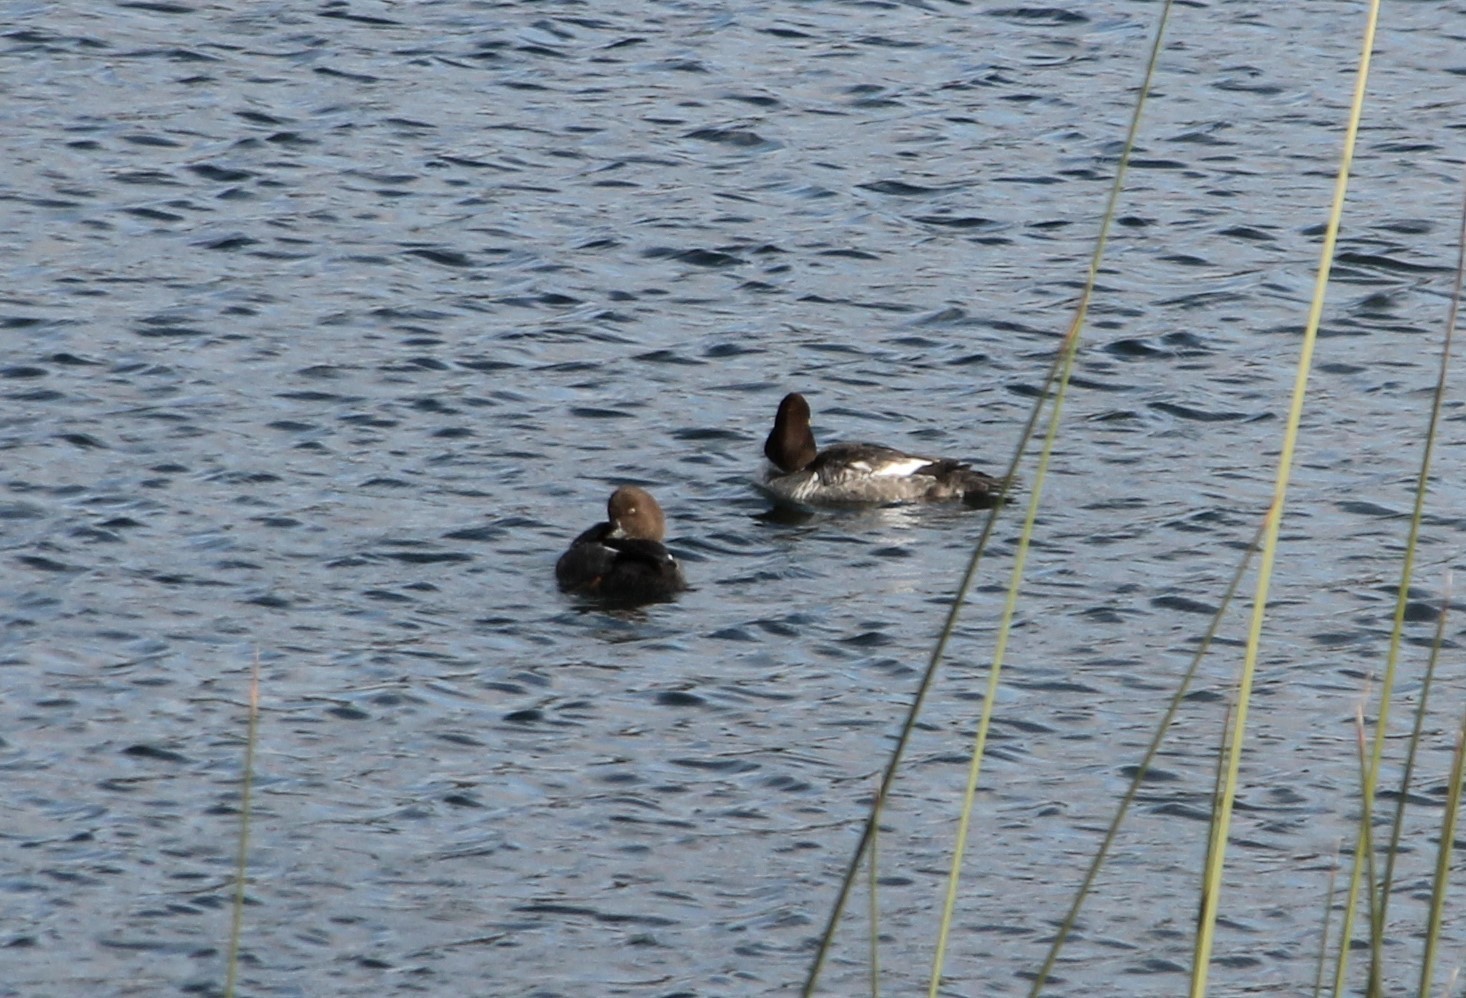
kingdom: Animalia
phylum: Chordata
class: Aves
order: Anseriformes
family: Anatidae
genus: Bucephala
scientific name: Bucephala clangula
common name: Common goldeneye
